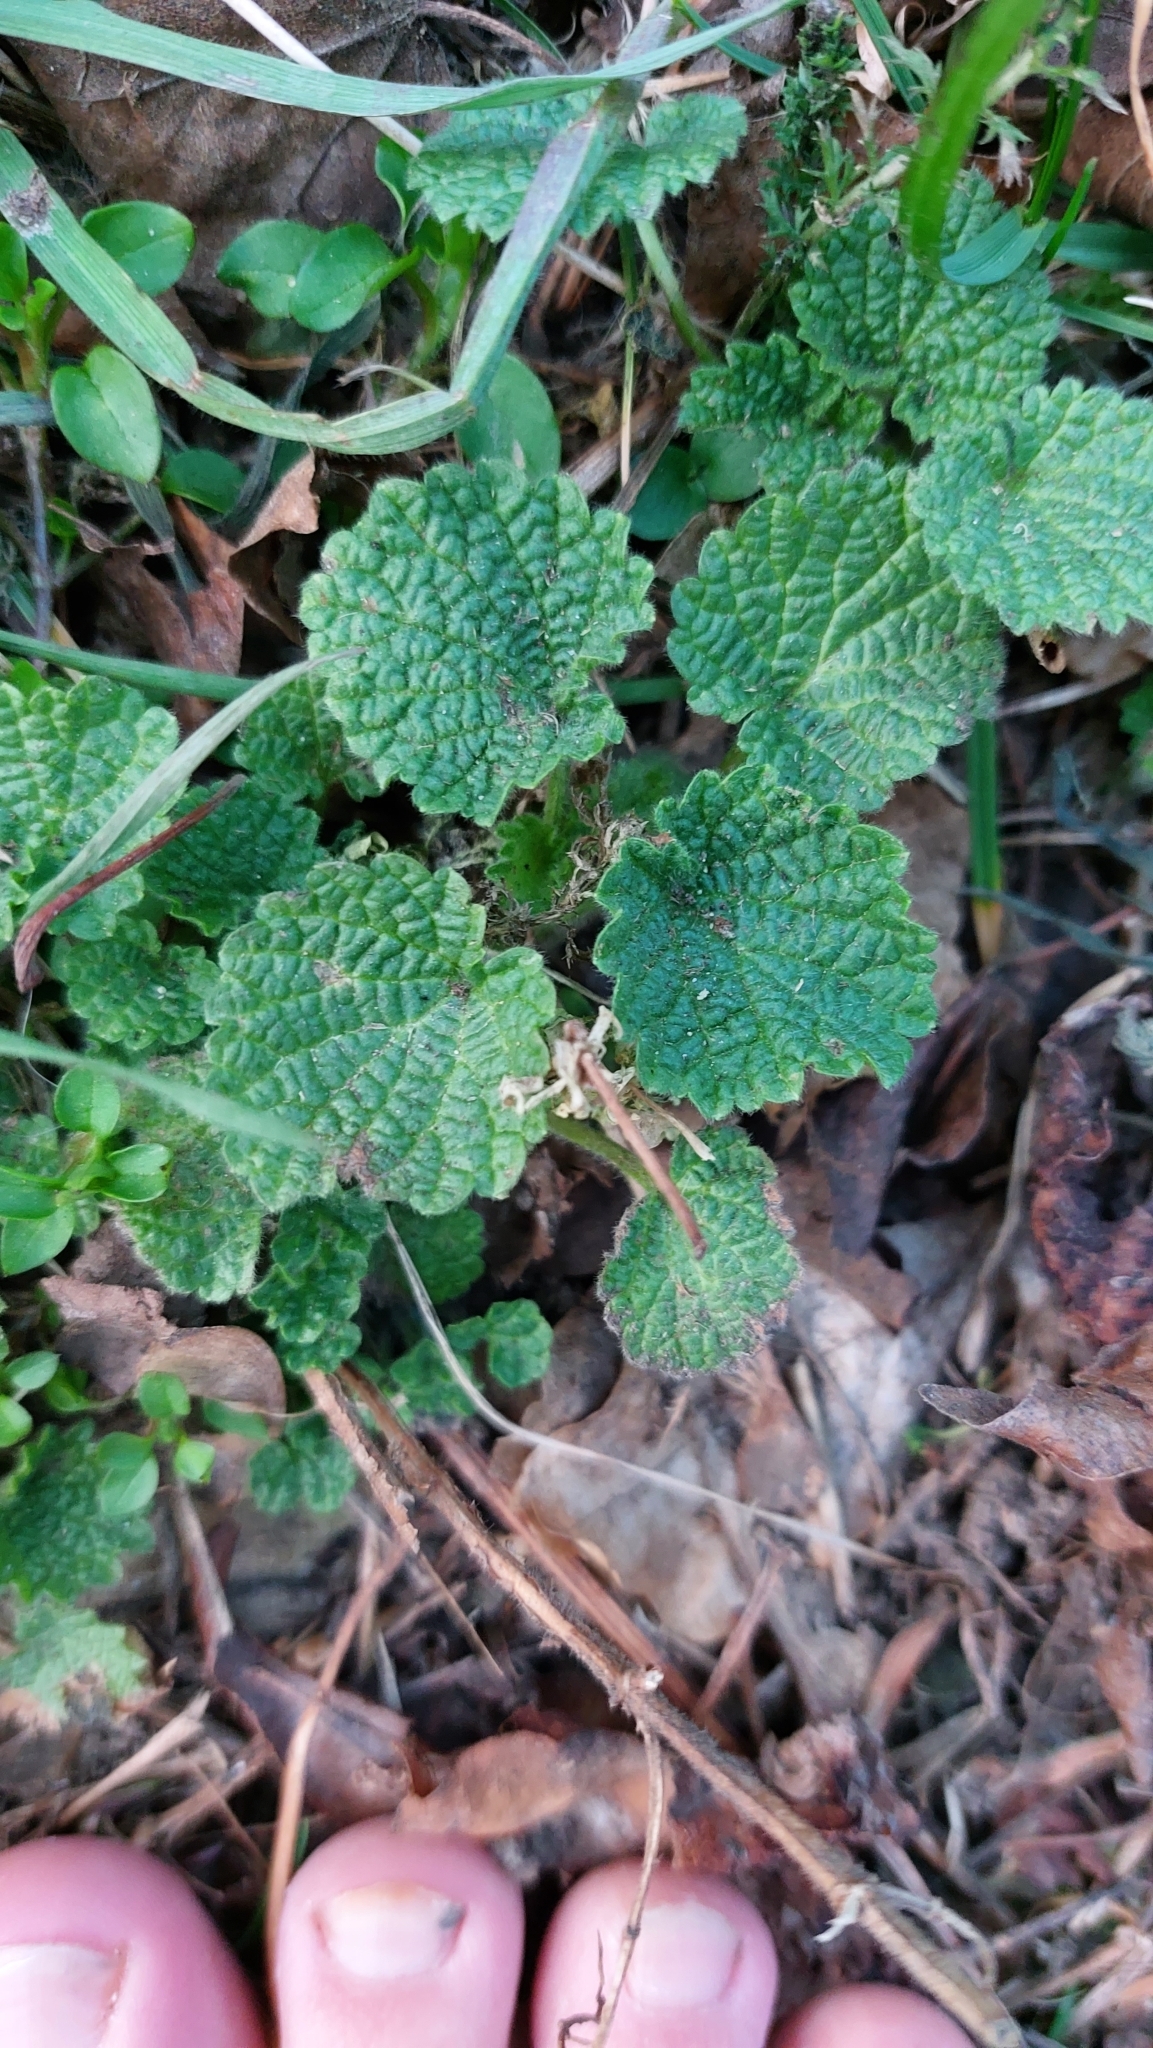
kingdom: Plantae
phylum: Tracheophyta
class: Magnoliopsida
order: Lamiales
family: Lamiaceae
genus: Ballota
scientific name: Ballota nigra
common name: Black horehound
